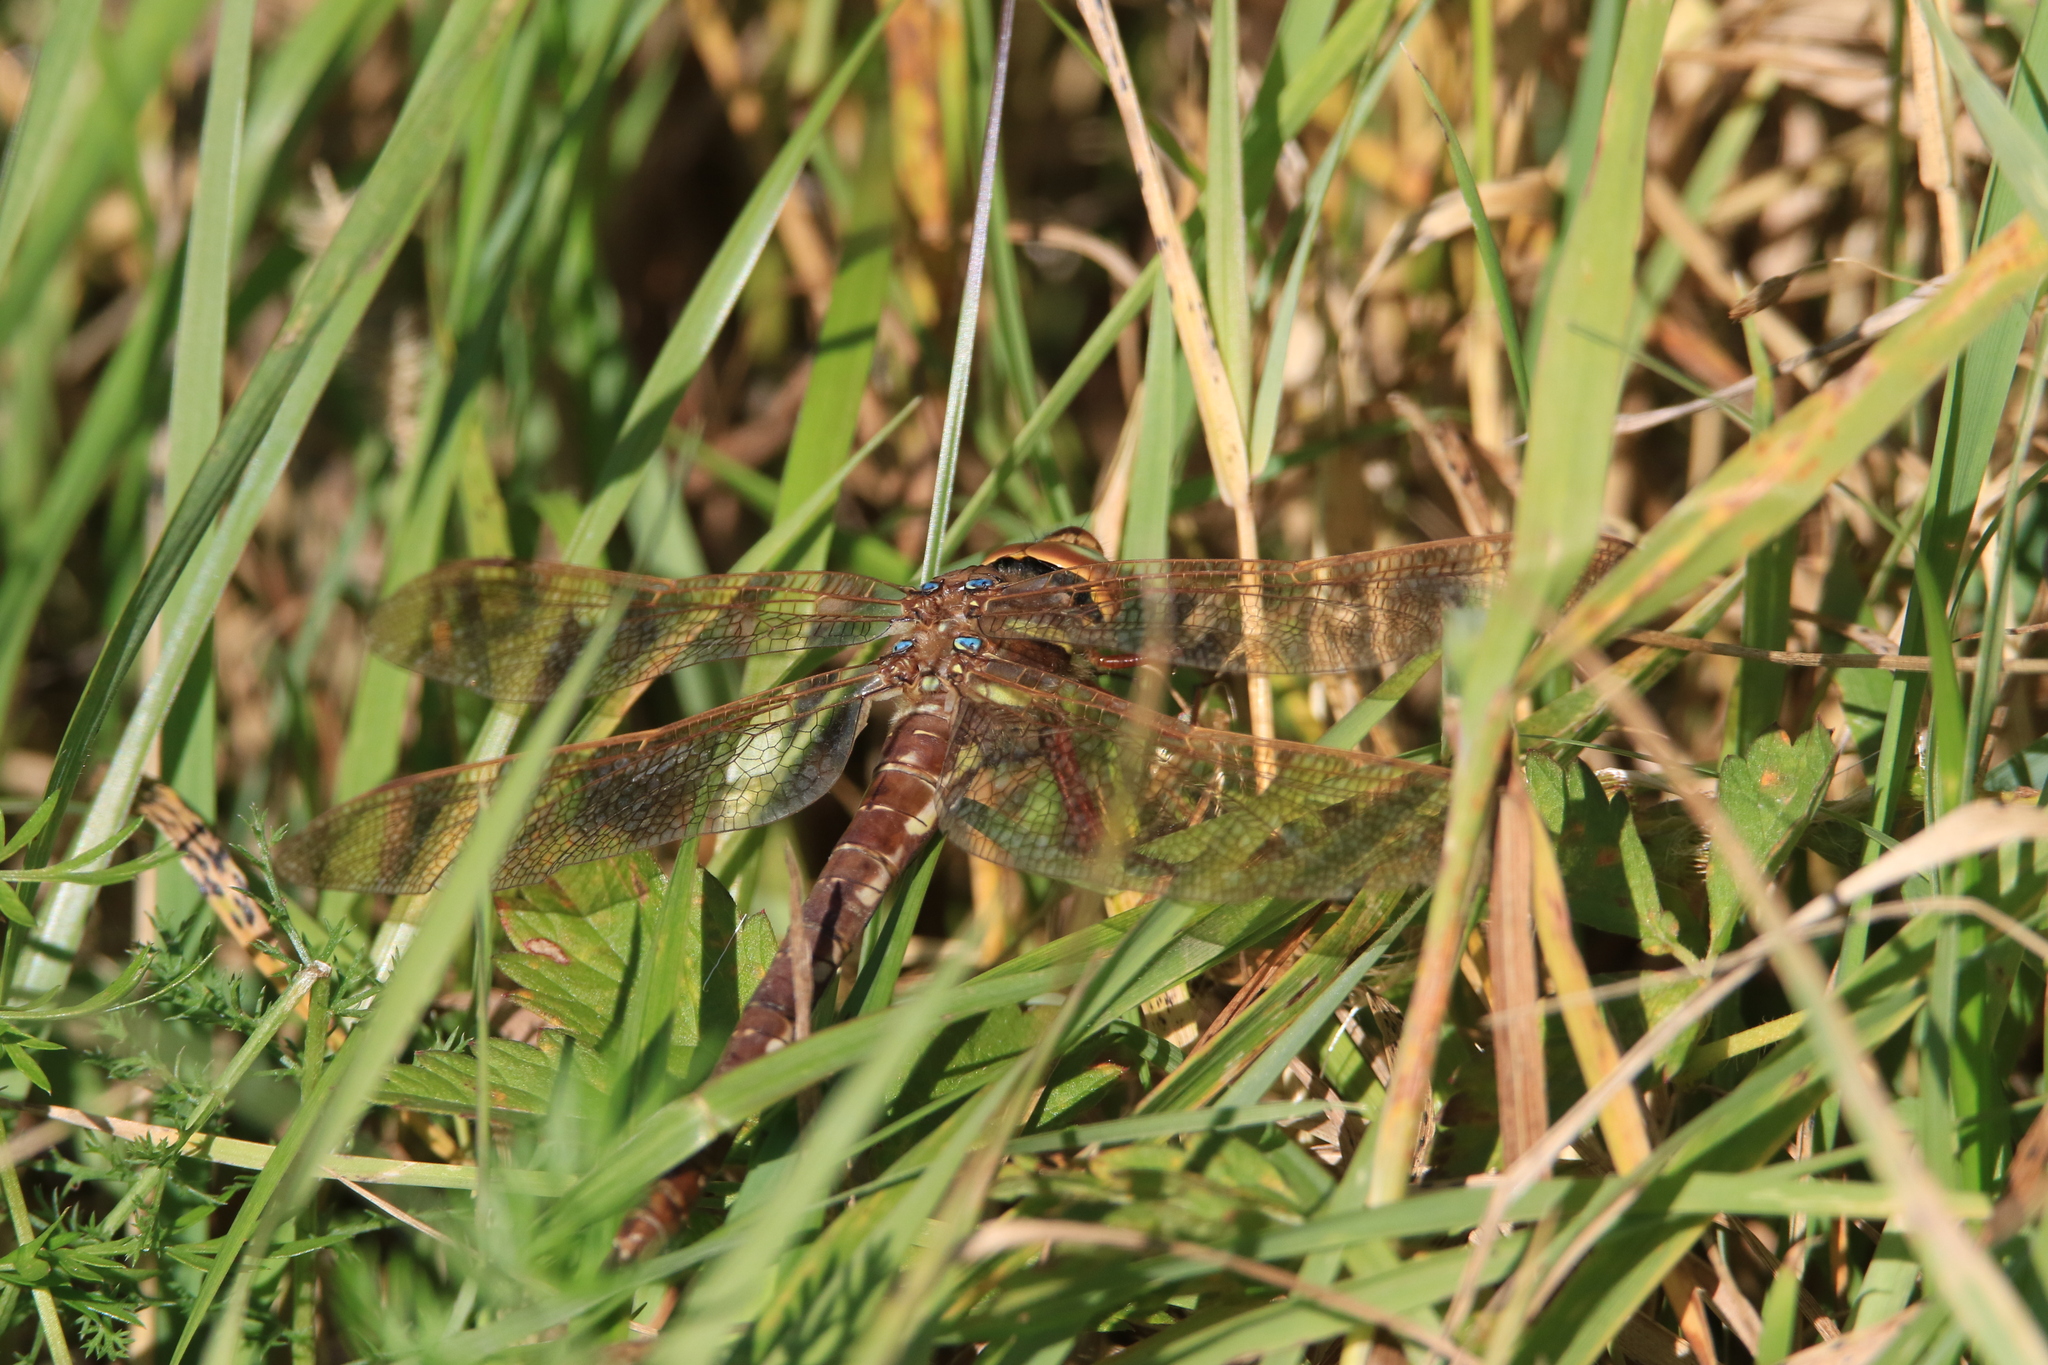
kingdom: Animalia
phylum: Arthropoda
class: Insecta
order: Odonata
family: Aeshnidae
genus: Aeshna
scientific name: Aeshna grandis
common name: Brown hawker
